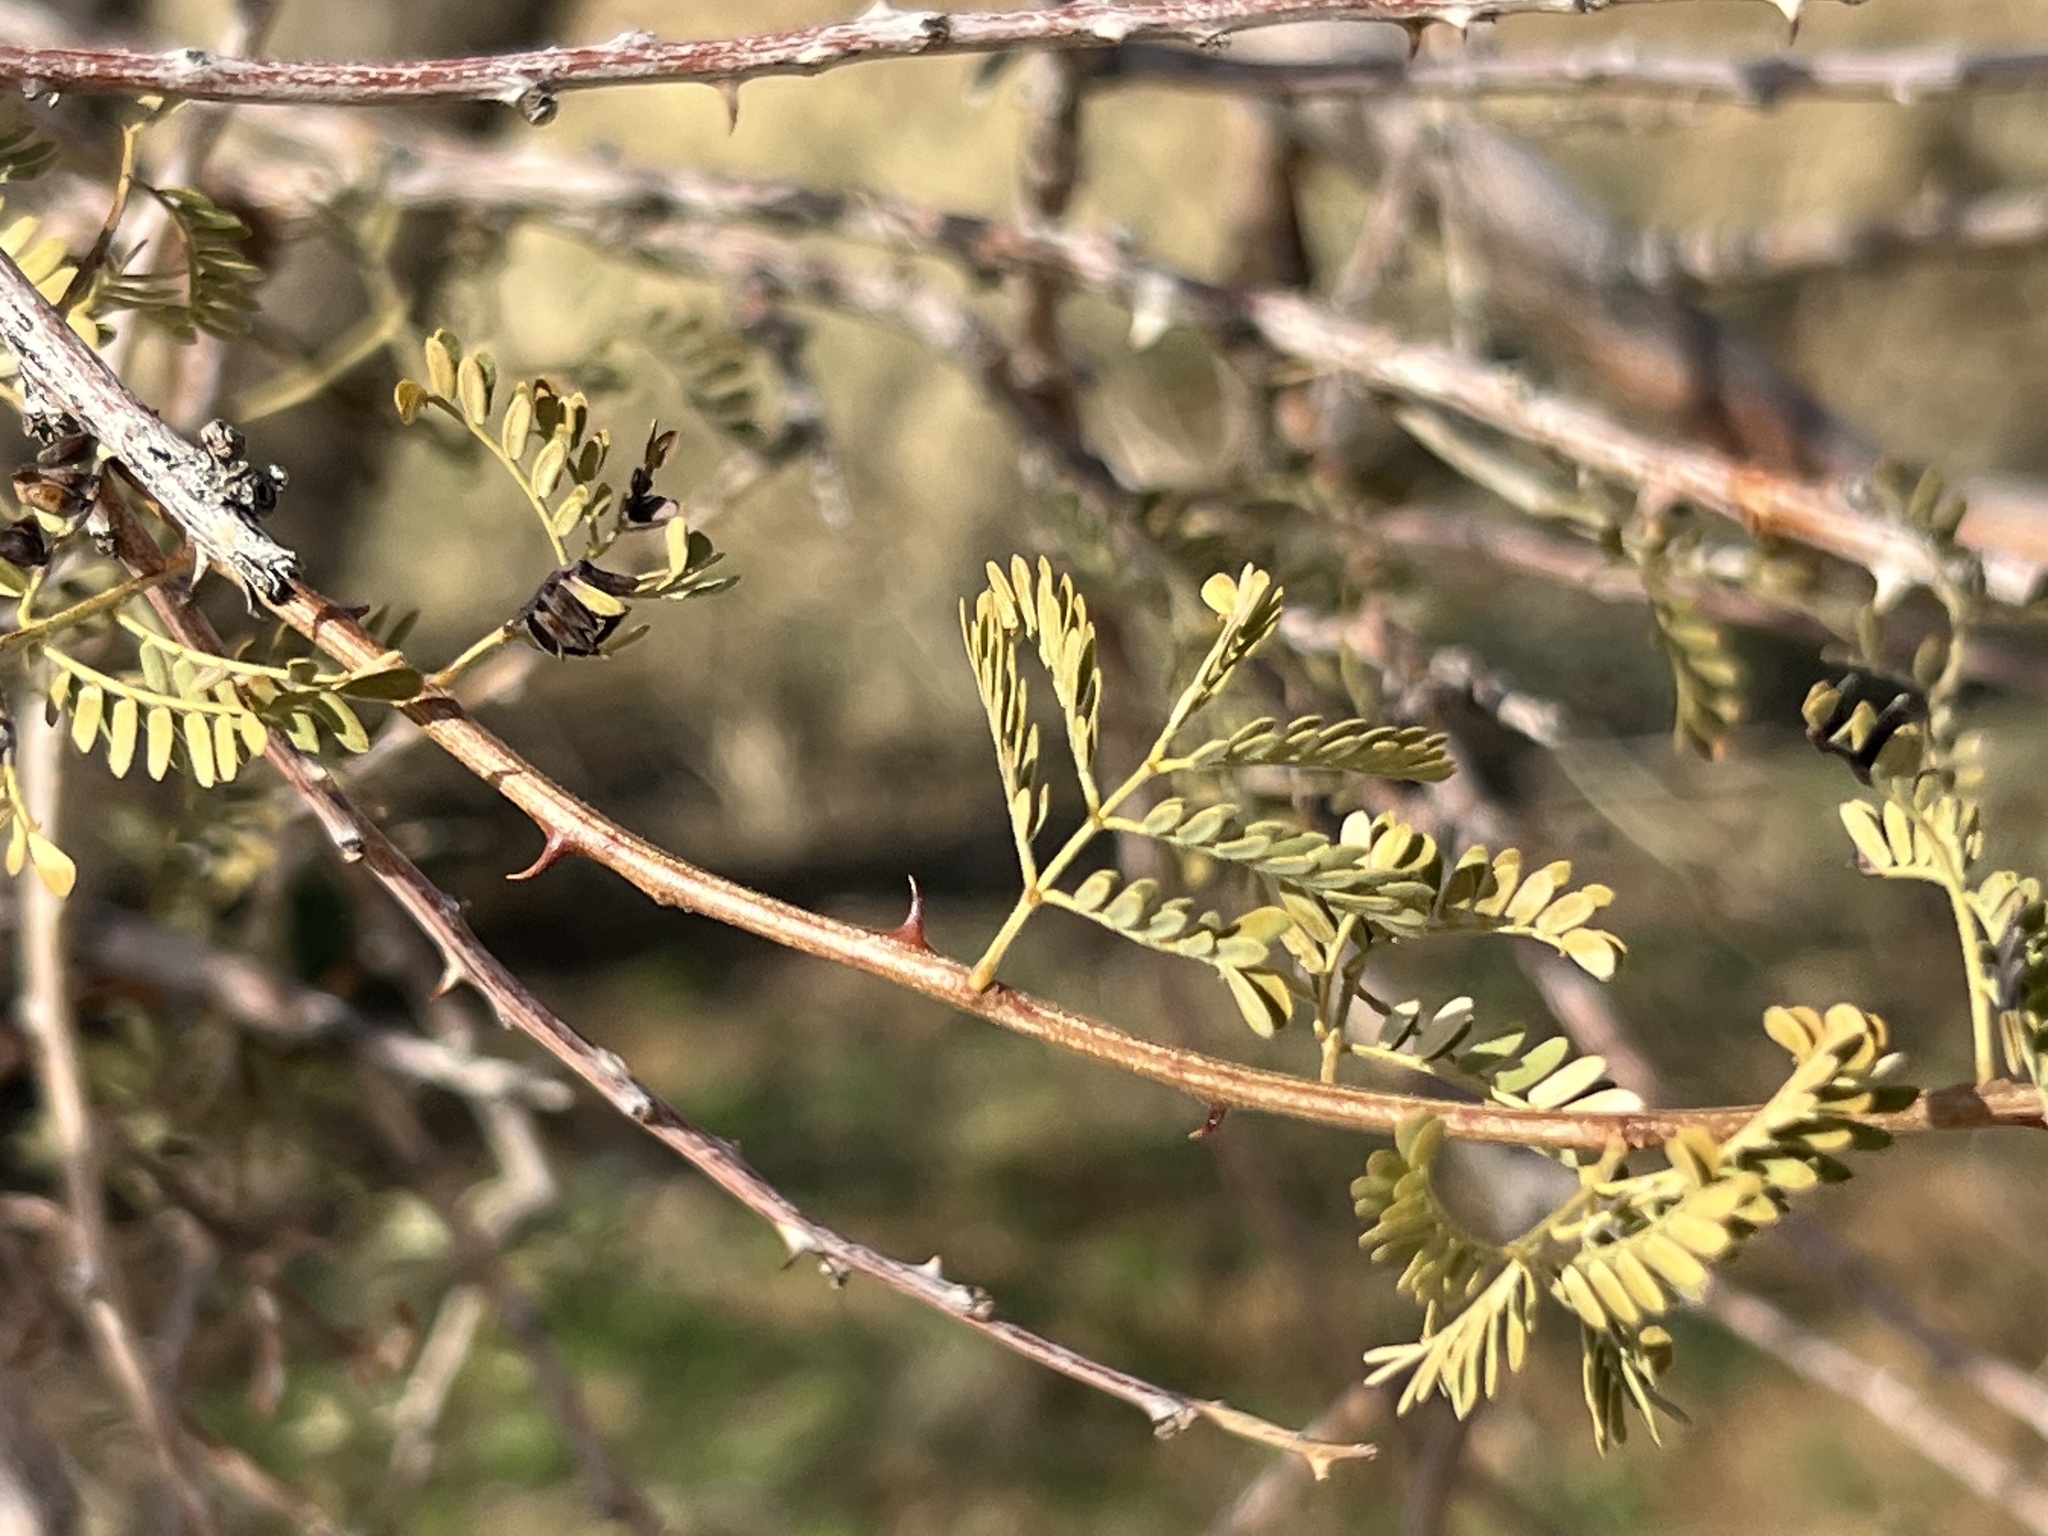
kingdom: Plantae
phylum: Tracheophyta
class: Magnoliopsida
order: Fabales
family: Fabaceae
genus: Senegalia
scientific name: Senegalia greggii
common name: Texas-mimosa
